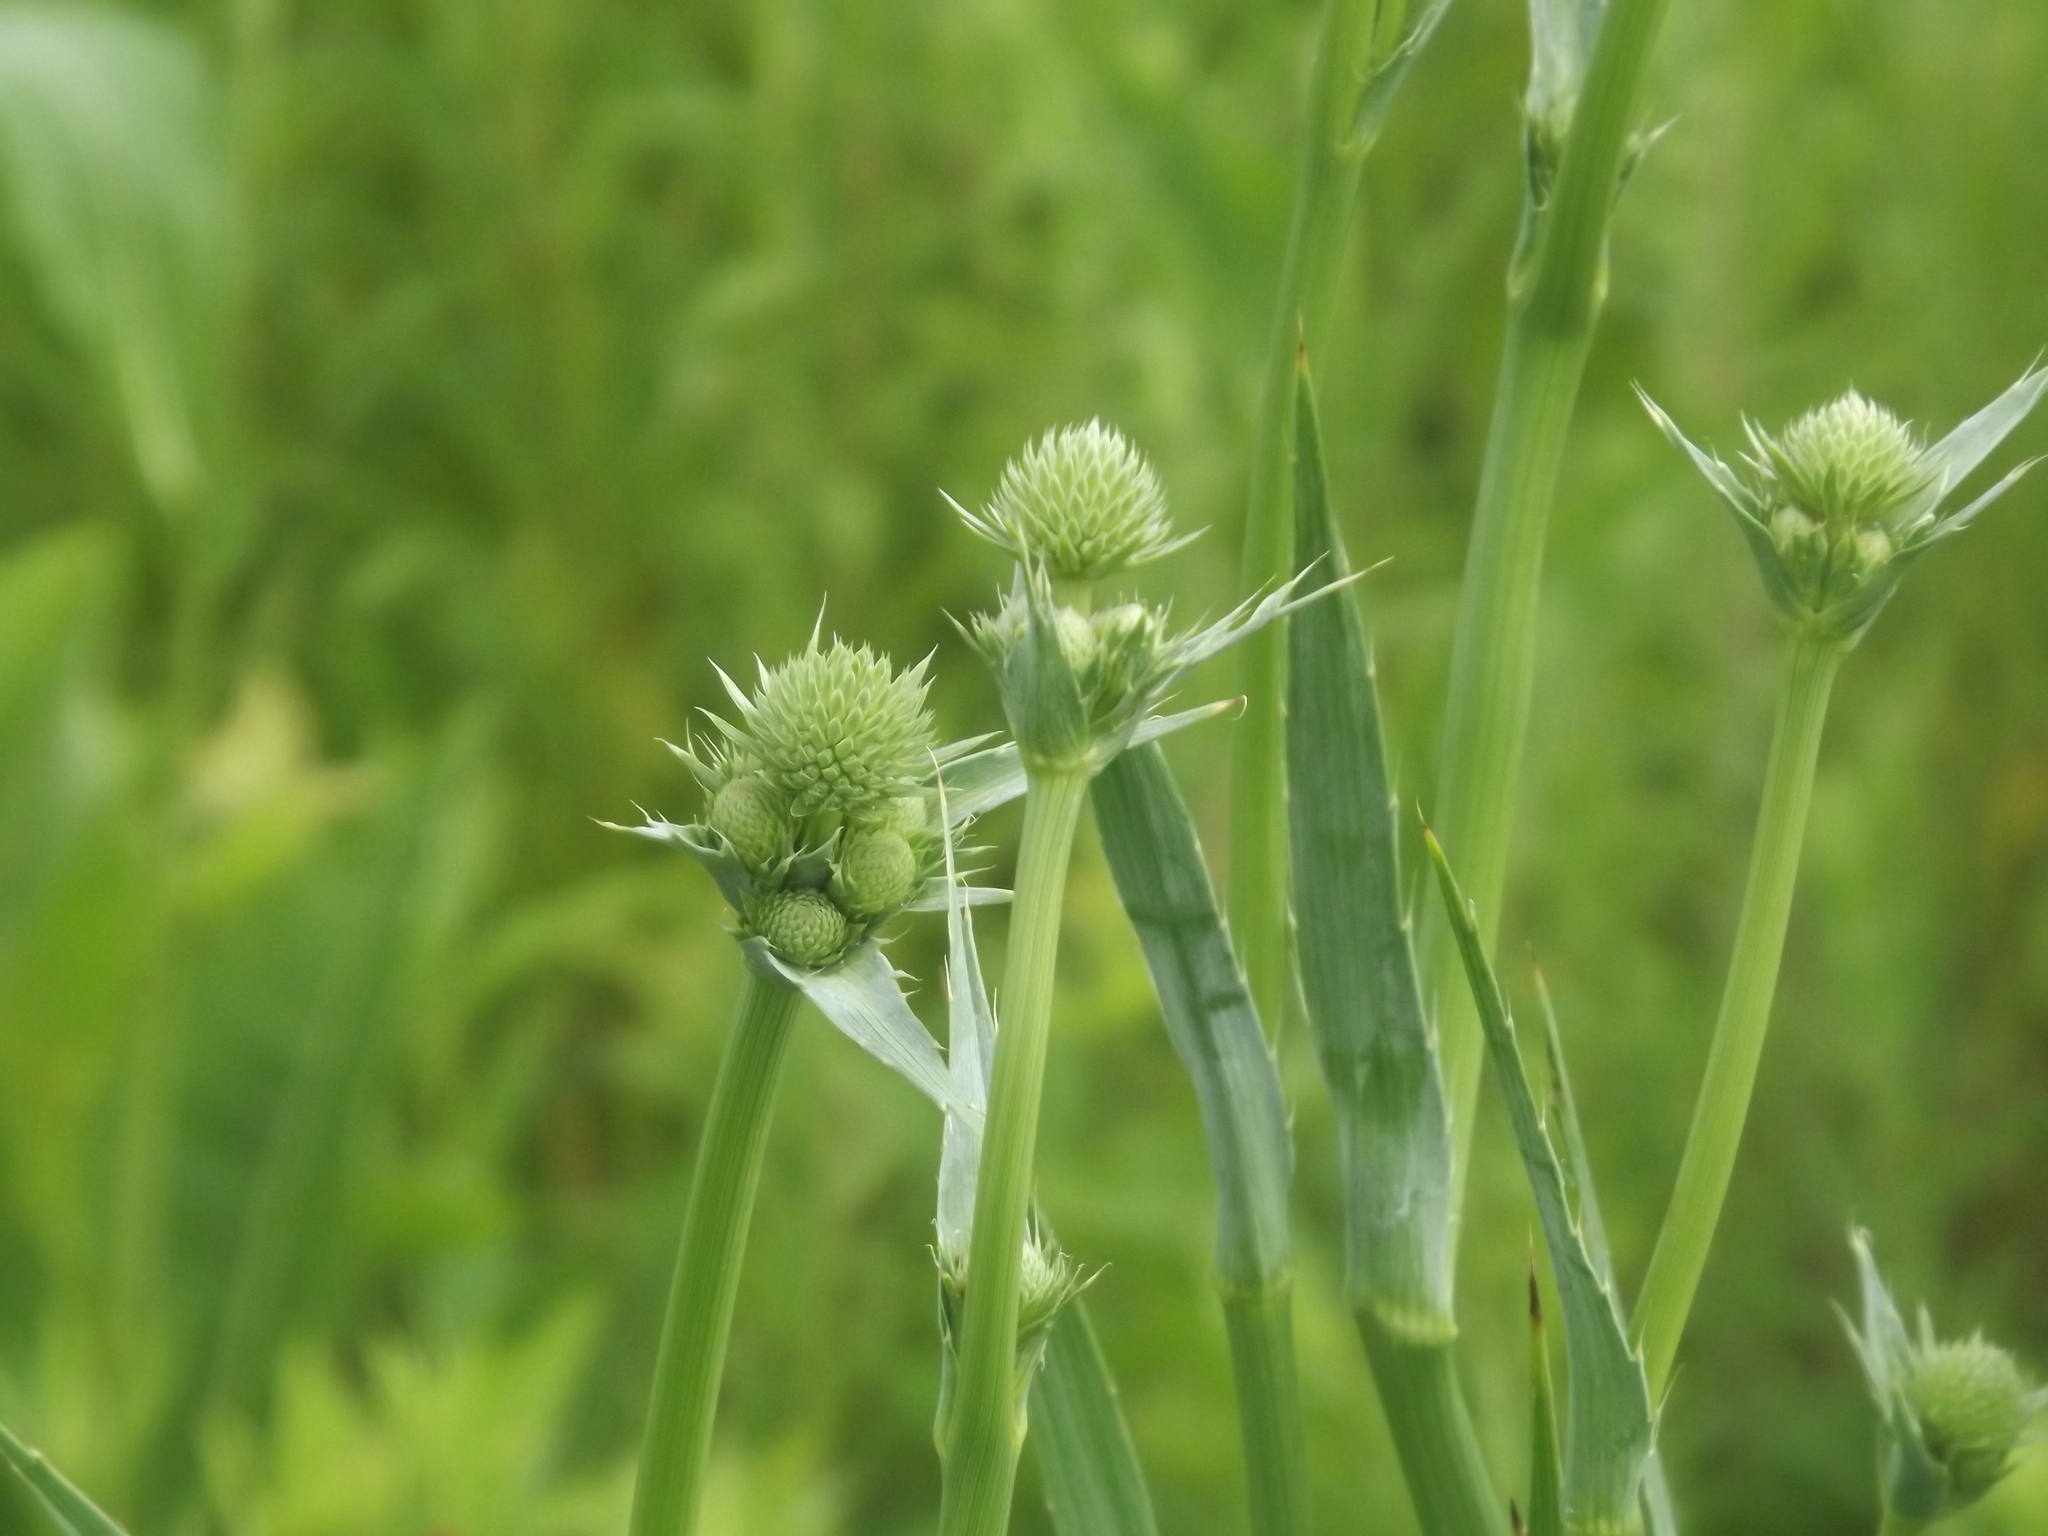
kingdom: Plantae
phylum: Tracheophyta
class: Magnoliopsida
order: Apiales
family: Apiaceae
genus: Eryngium
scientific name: Eryngium yuccifolium
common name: Button eryngo
